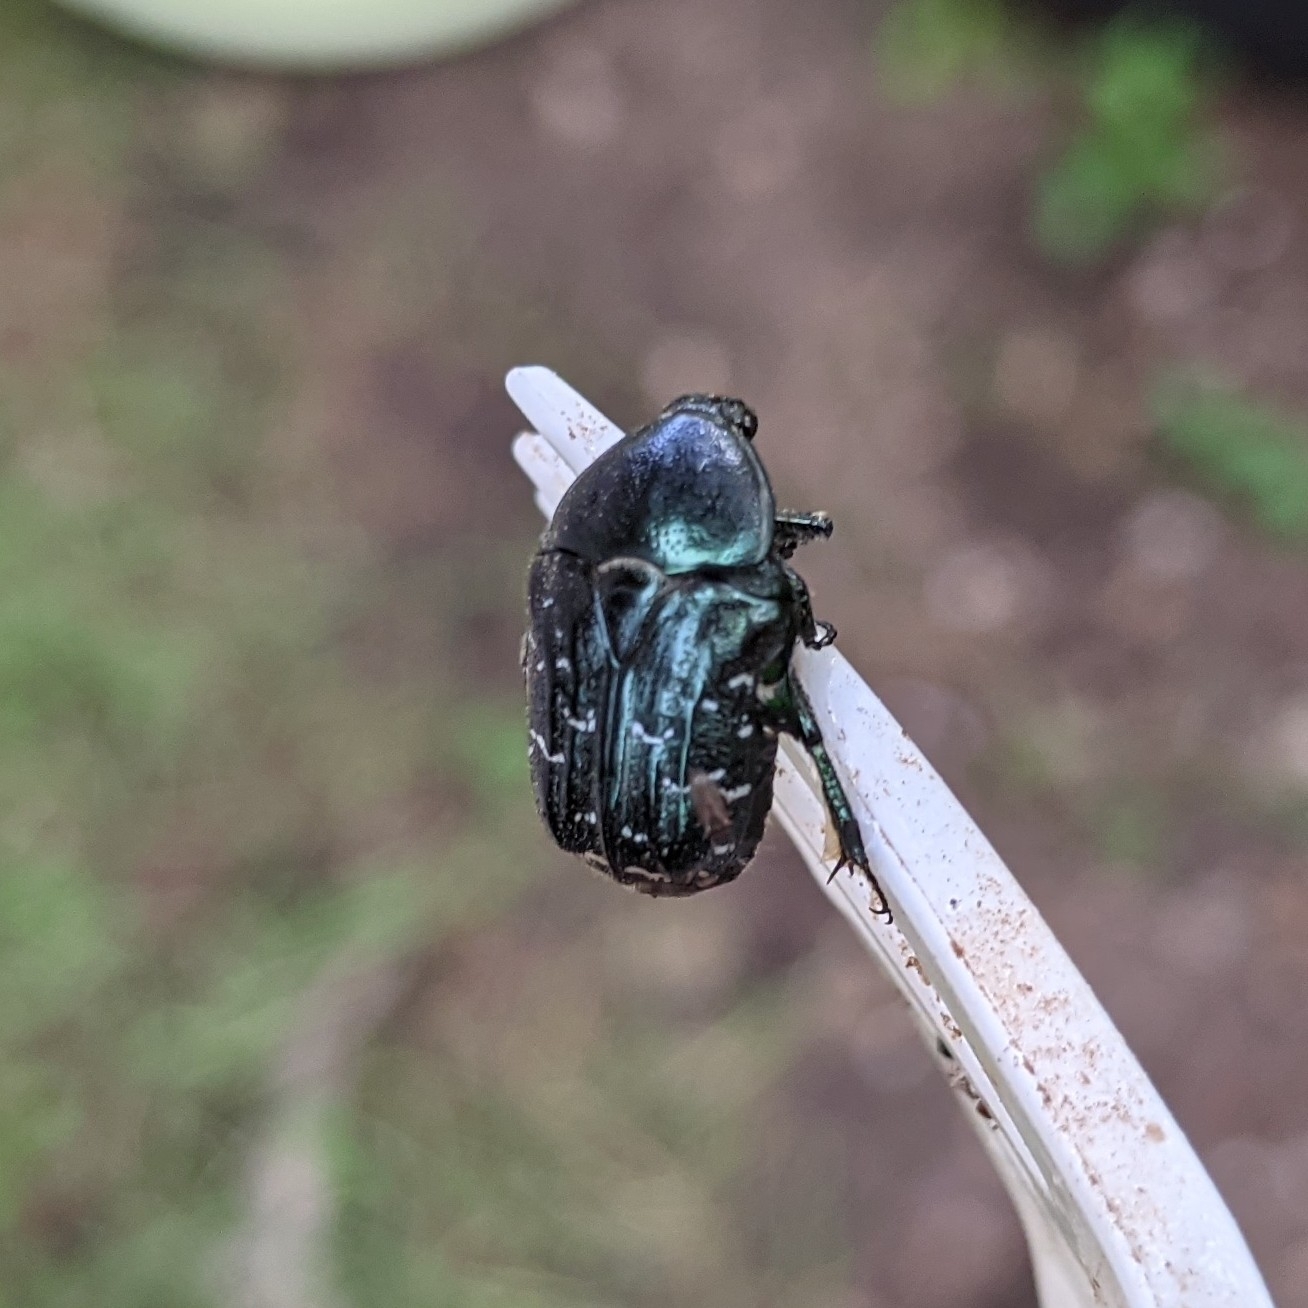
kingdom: Animalia
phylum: Arthropoda
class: Insecta
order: Coleoptera
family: Scarabaeidae
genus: Euphoria
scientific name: Euphoria sepulcralis
